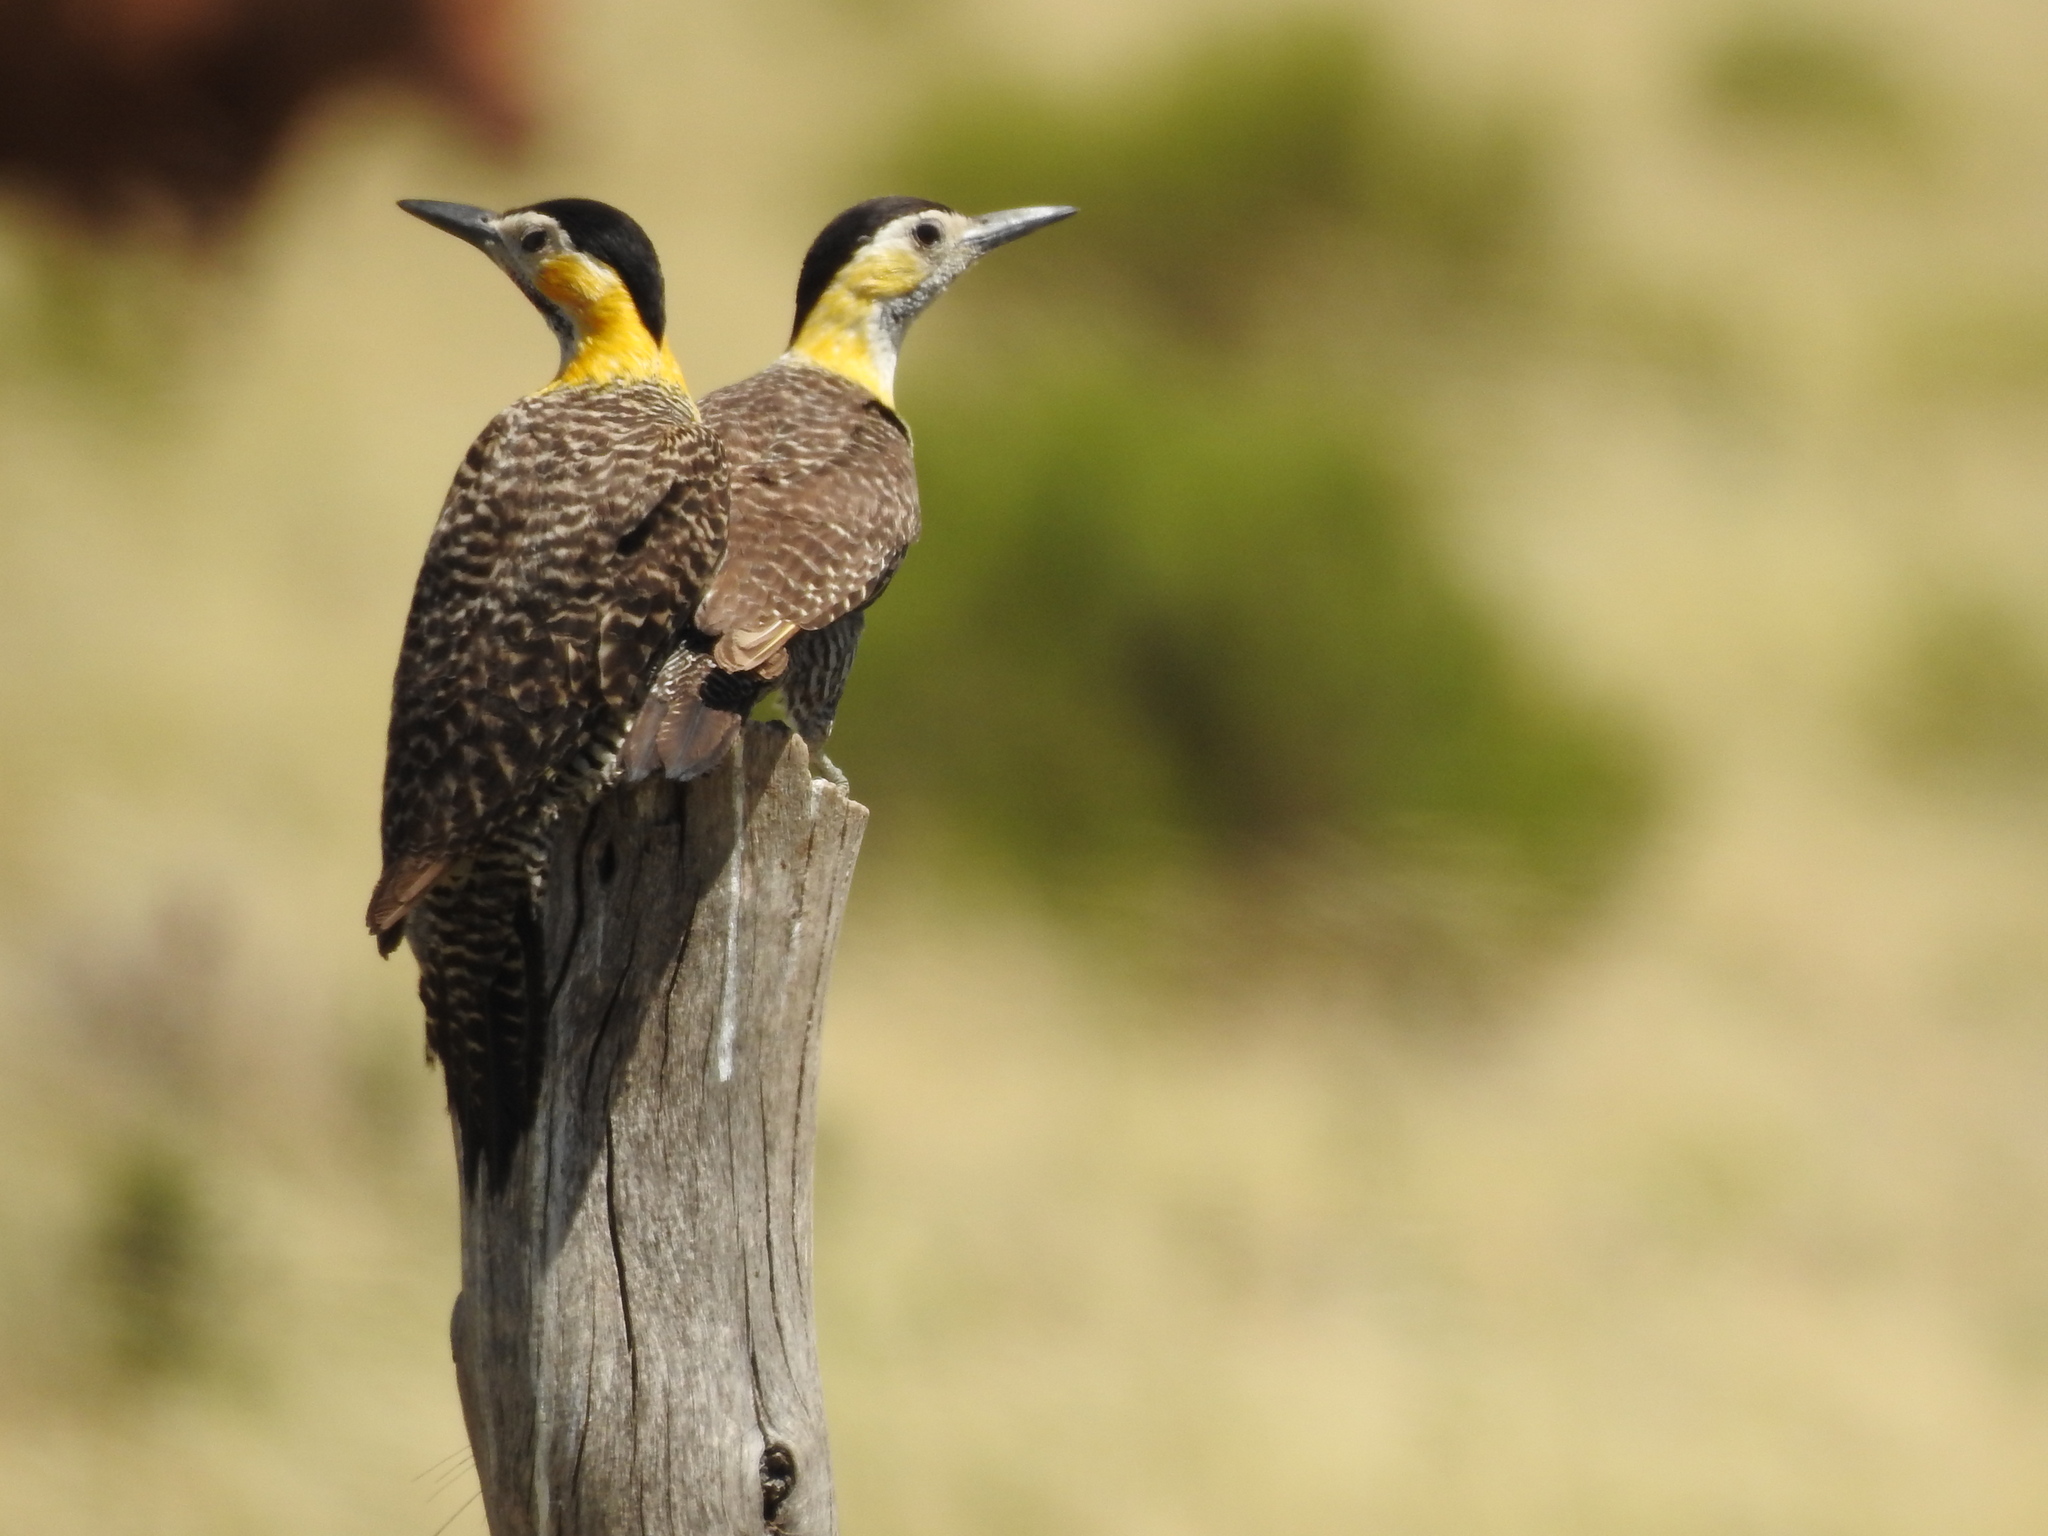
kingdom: Animalia
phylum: Chordata
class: Aves
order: Piciformes
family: Picidae
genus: Colaptes
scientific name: Colaptes campestris
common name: Campo flicker
